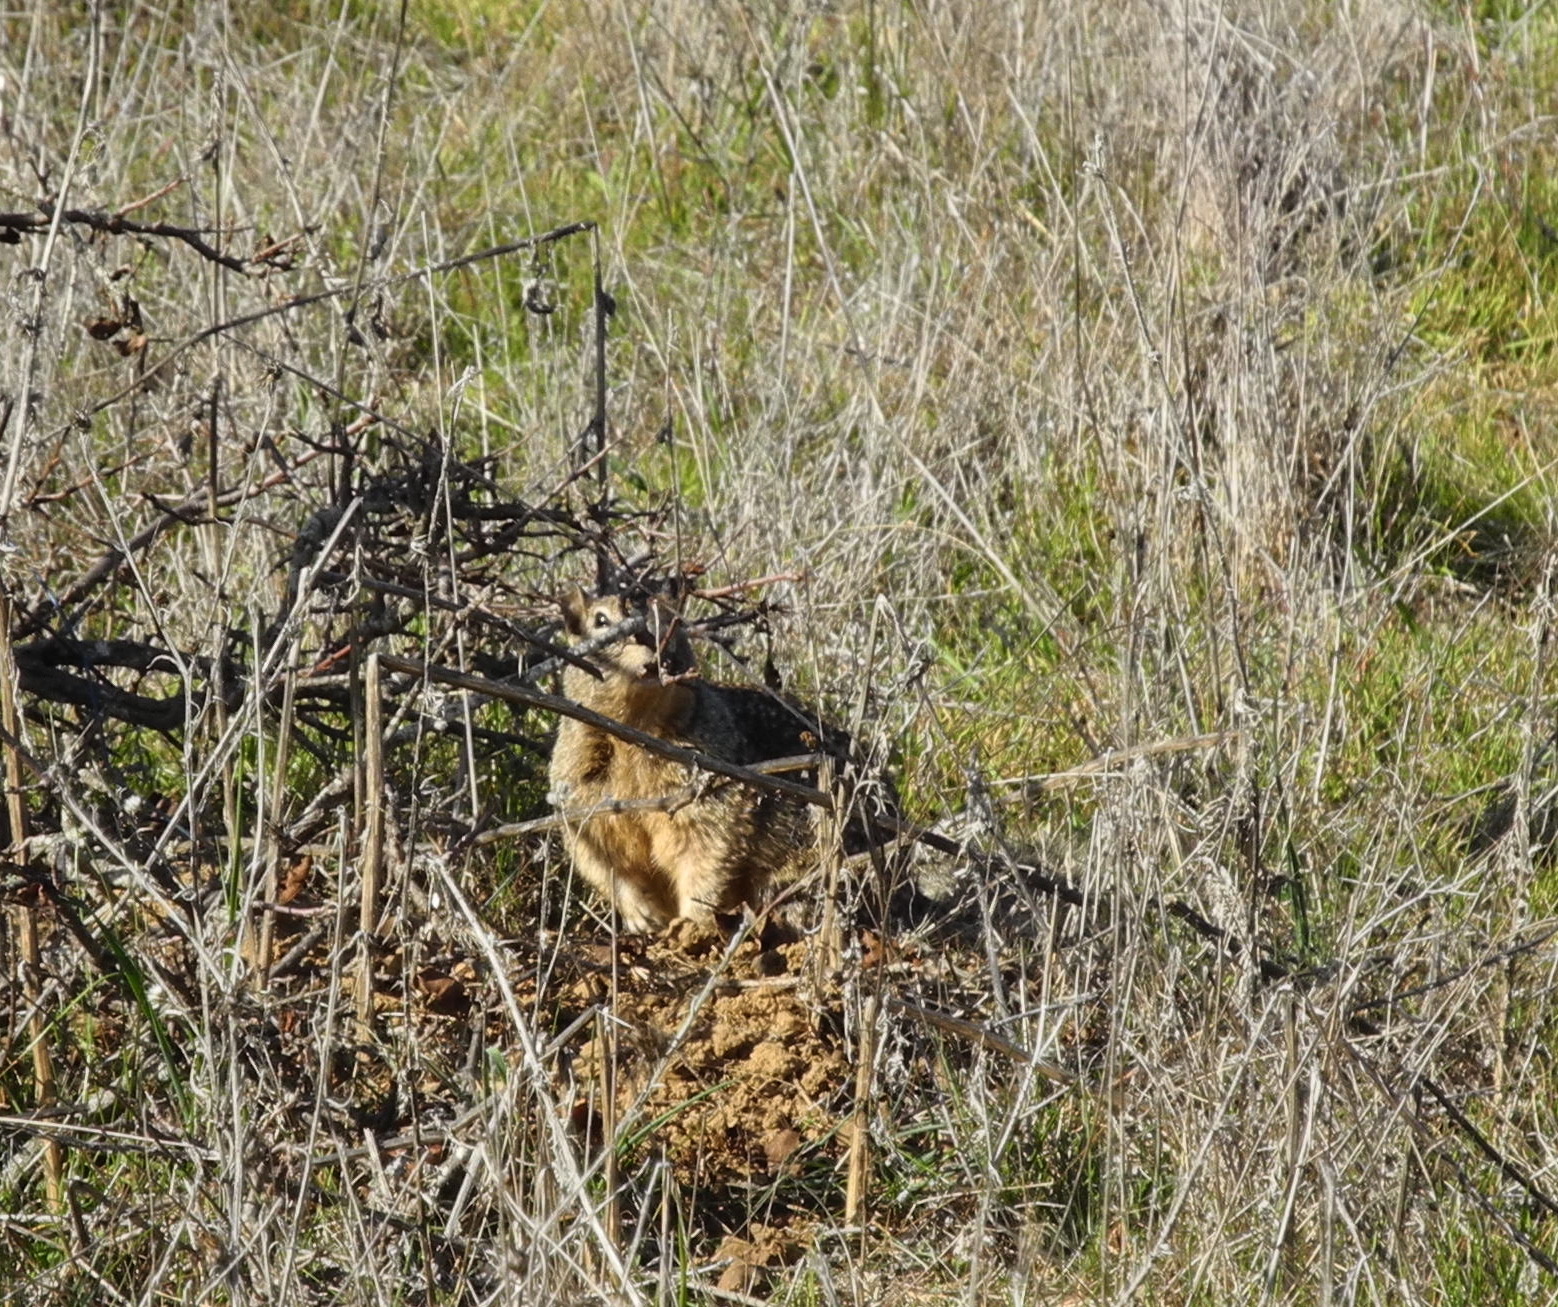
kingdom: Animalia
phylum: Chordata
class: Mammalia
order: Rodentia
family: Sciuridae
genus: Otospermophilus
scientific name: Otospermophilus beecheyi
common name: California ground squirrel
